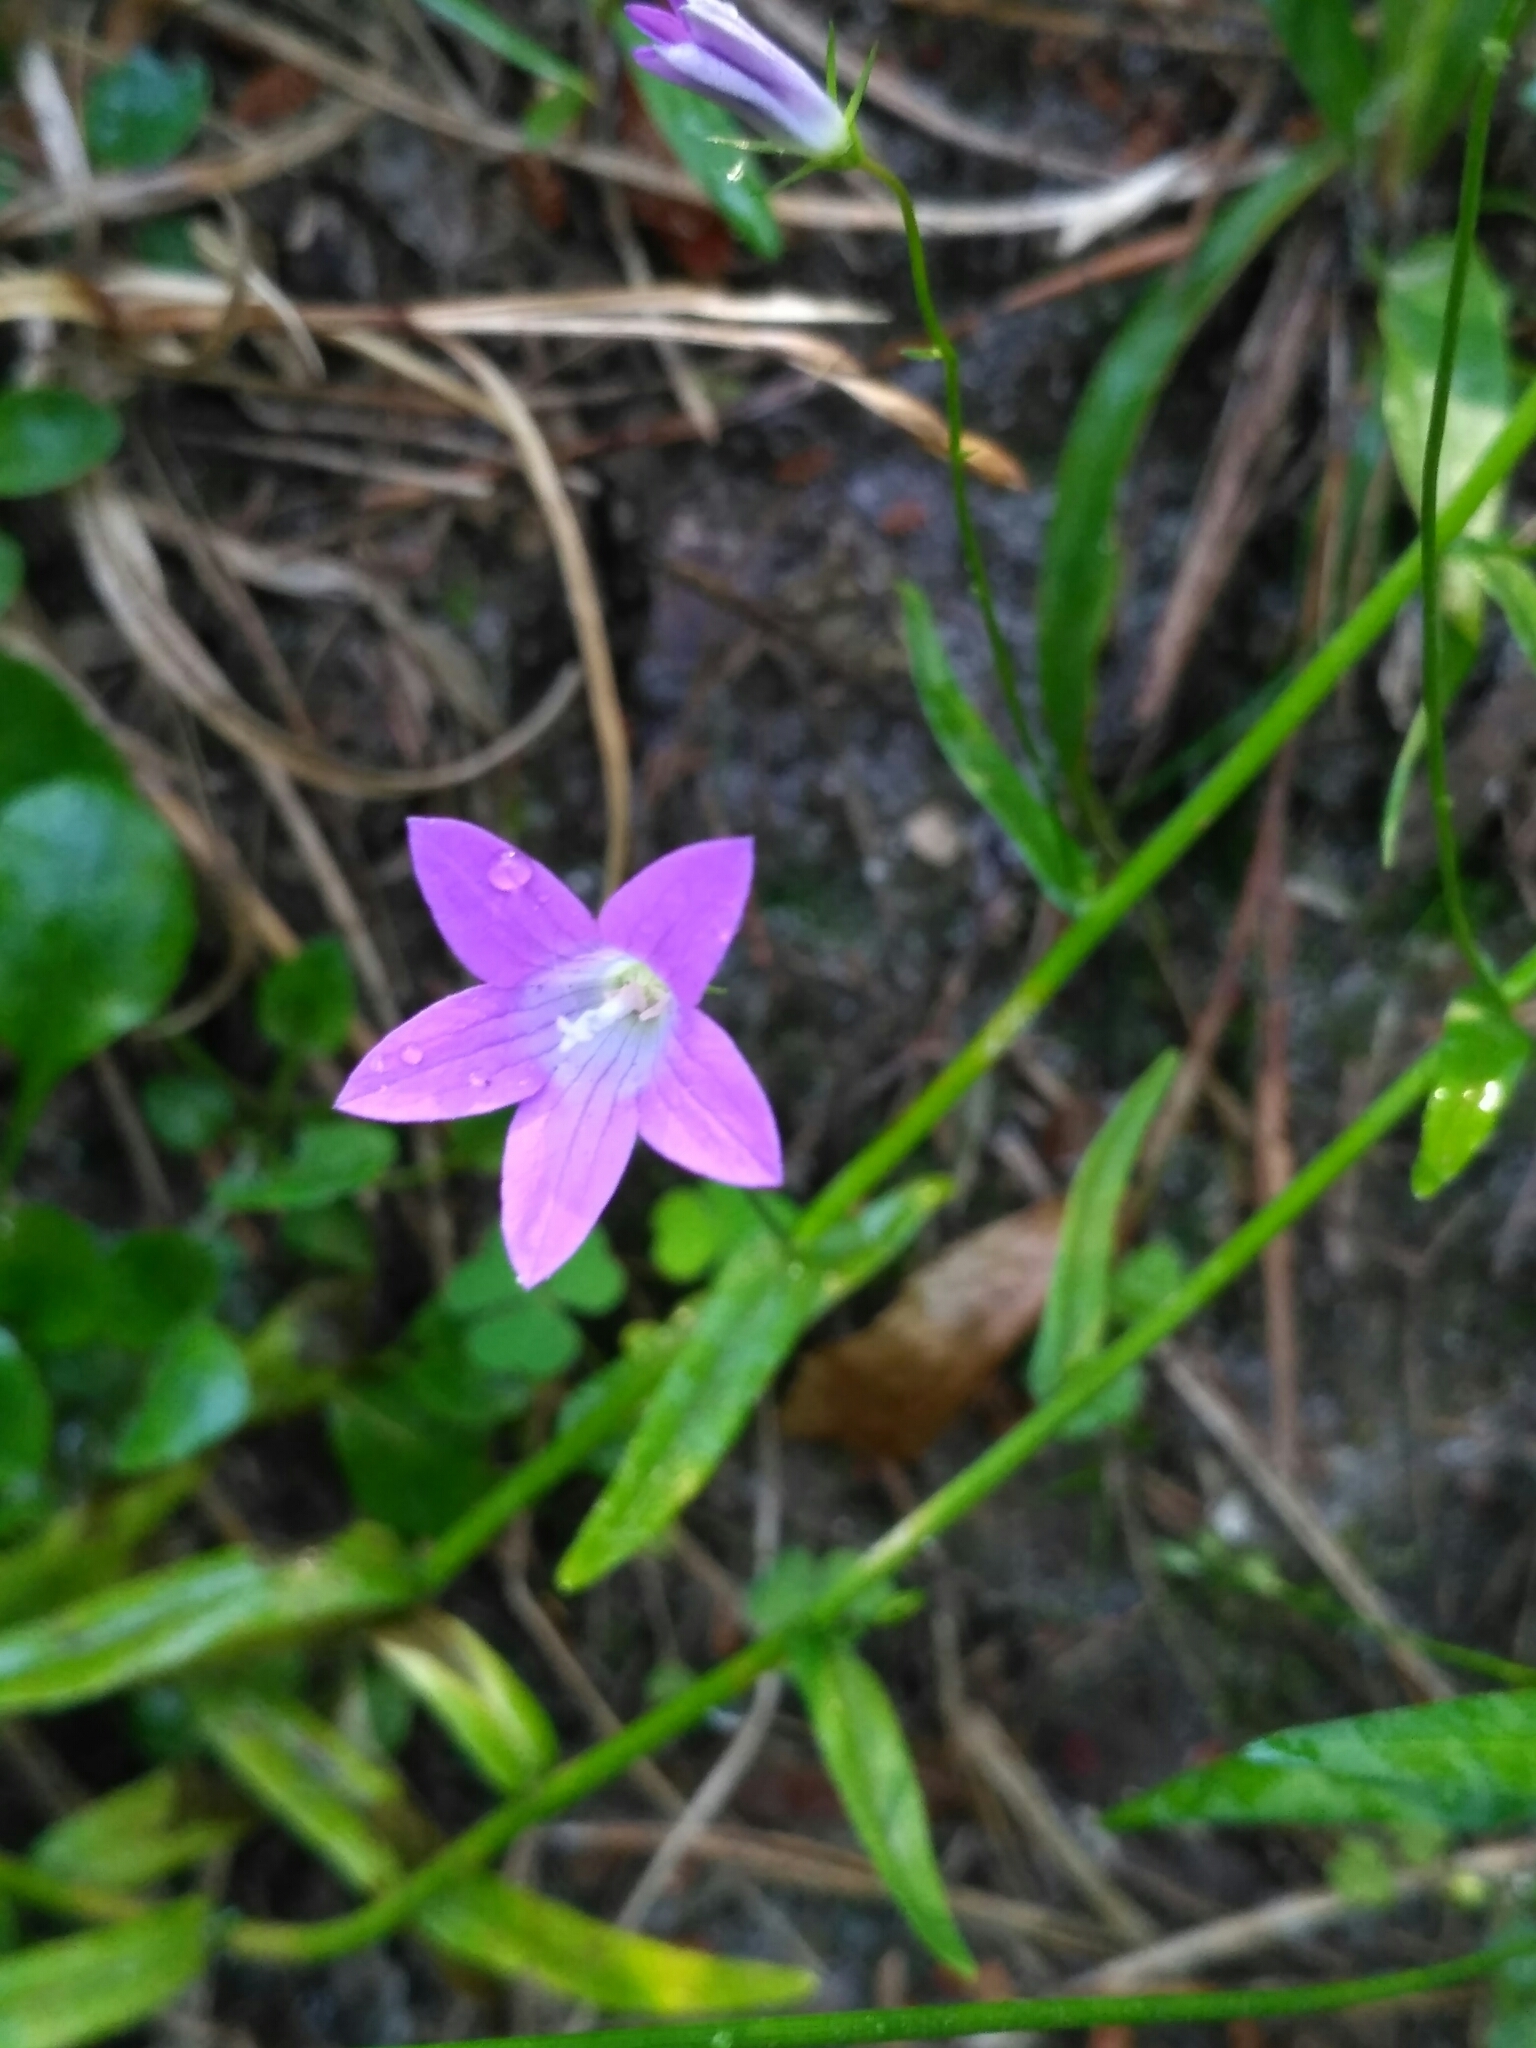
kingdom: Plantae
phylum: Tracheophyta
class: Magnoliopsida
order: Asterales
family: Campanulaceae
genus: Campanula
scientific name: Campanula patula
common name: Spreading bellflower
